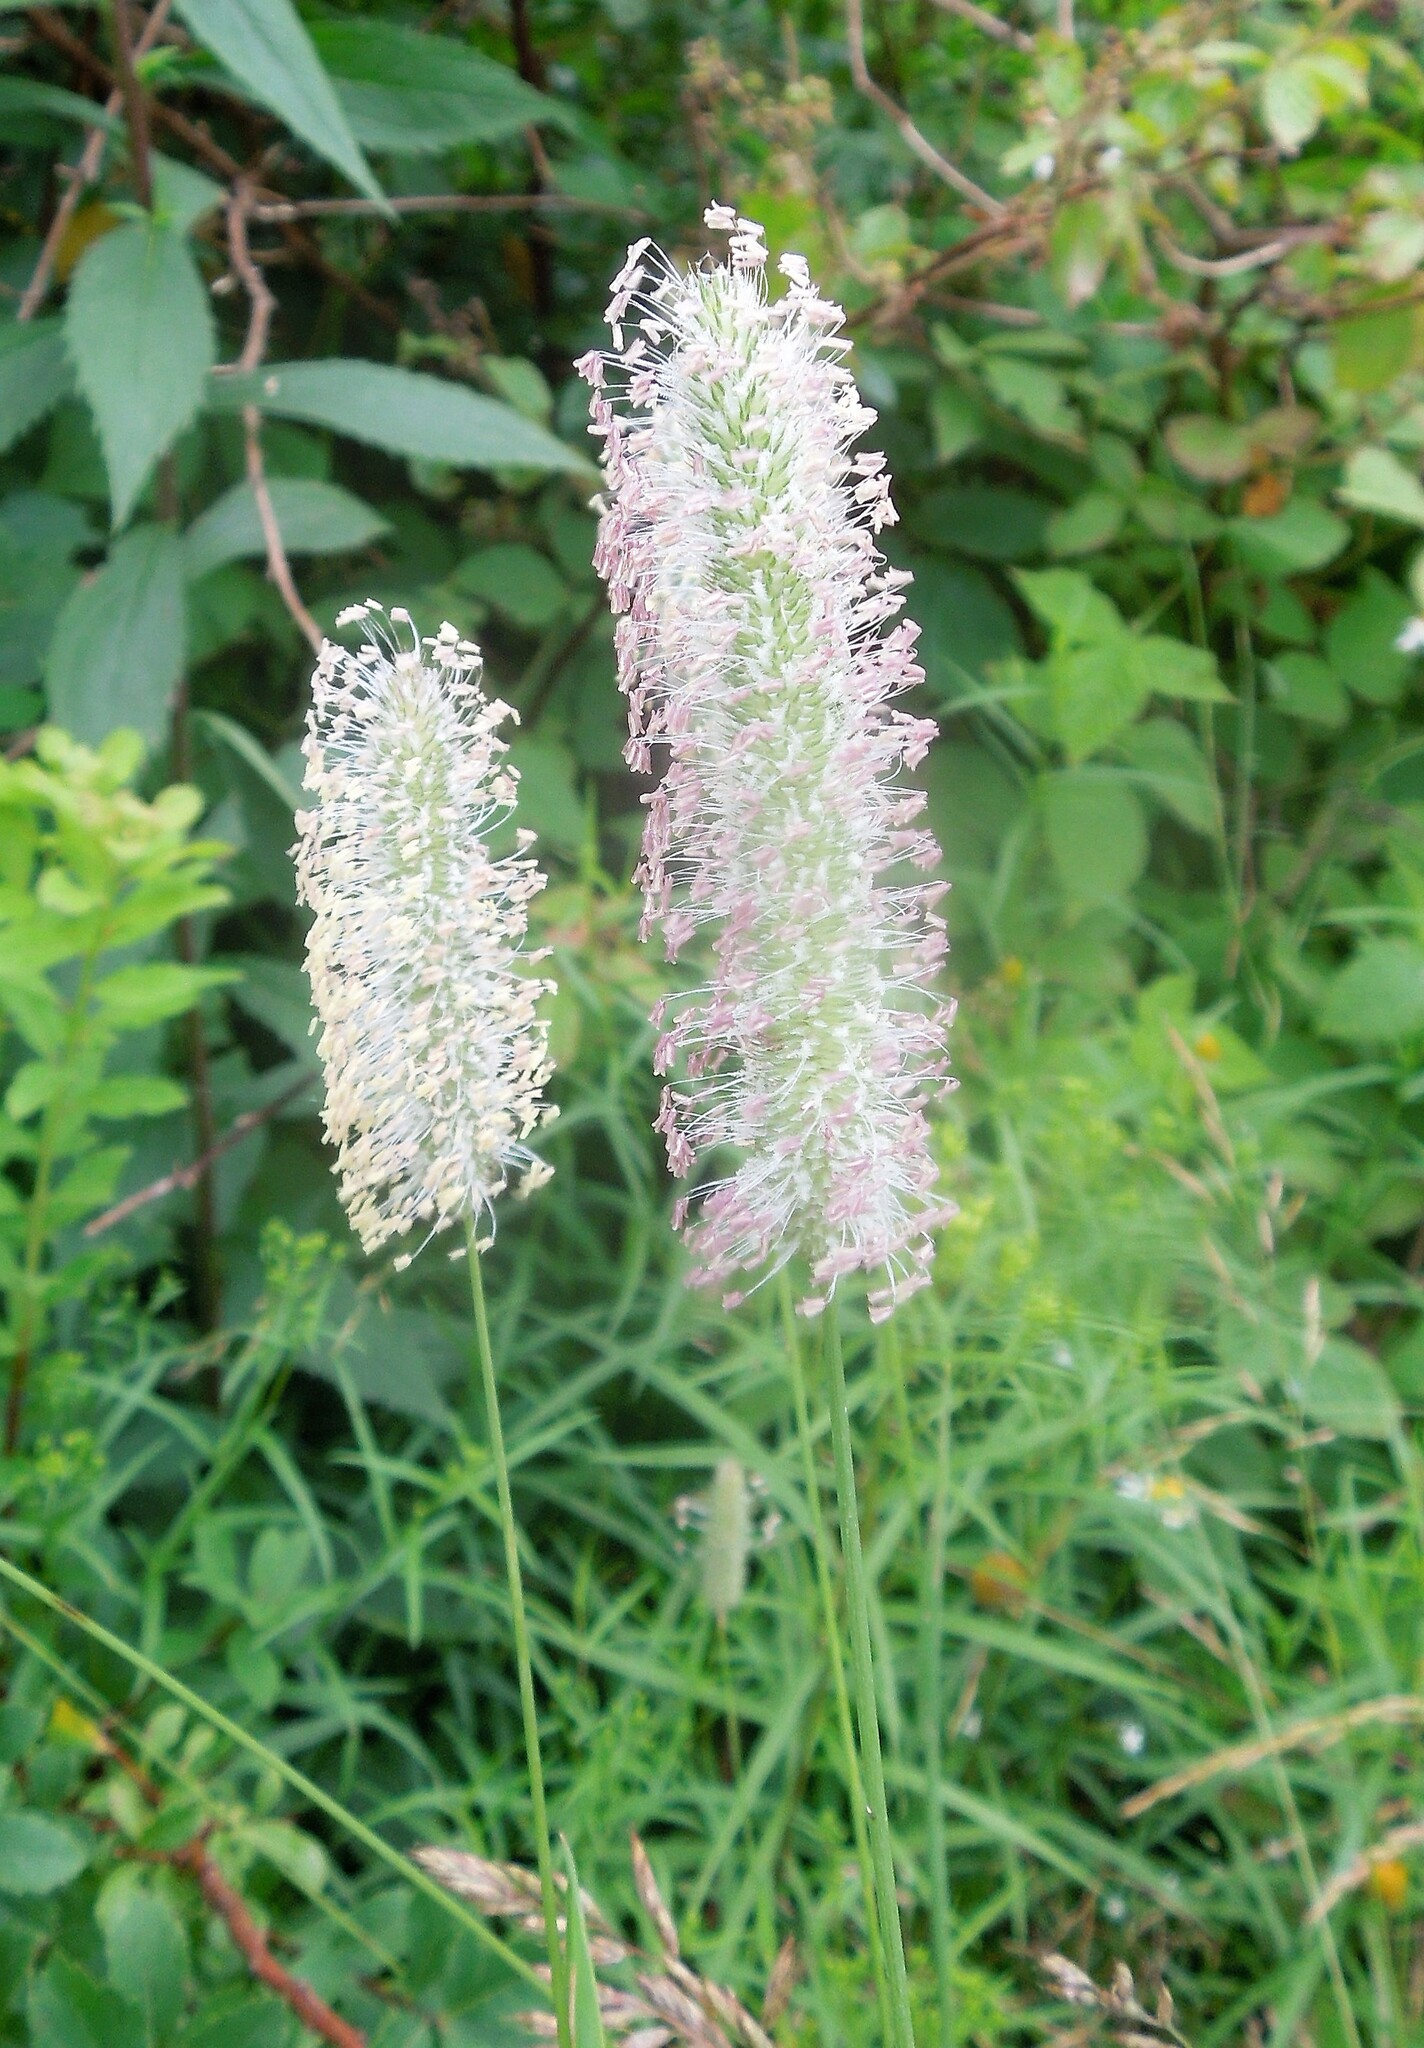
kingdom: Plantae
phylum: Tracheophyta
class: Liliopsida
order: Poales
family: Poaceae
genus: Phleum
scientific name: Phleum pratense
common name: Timothy grass
